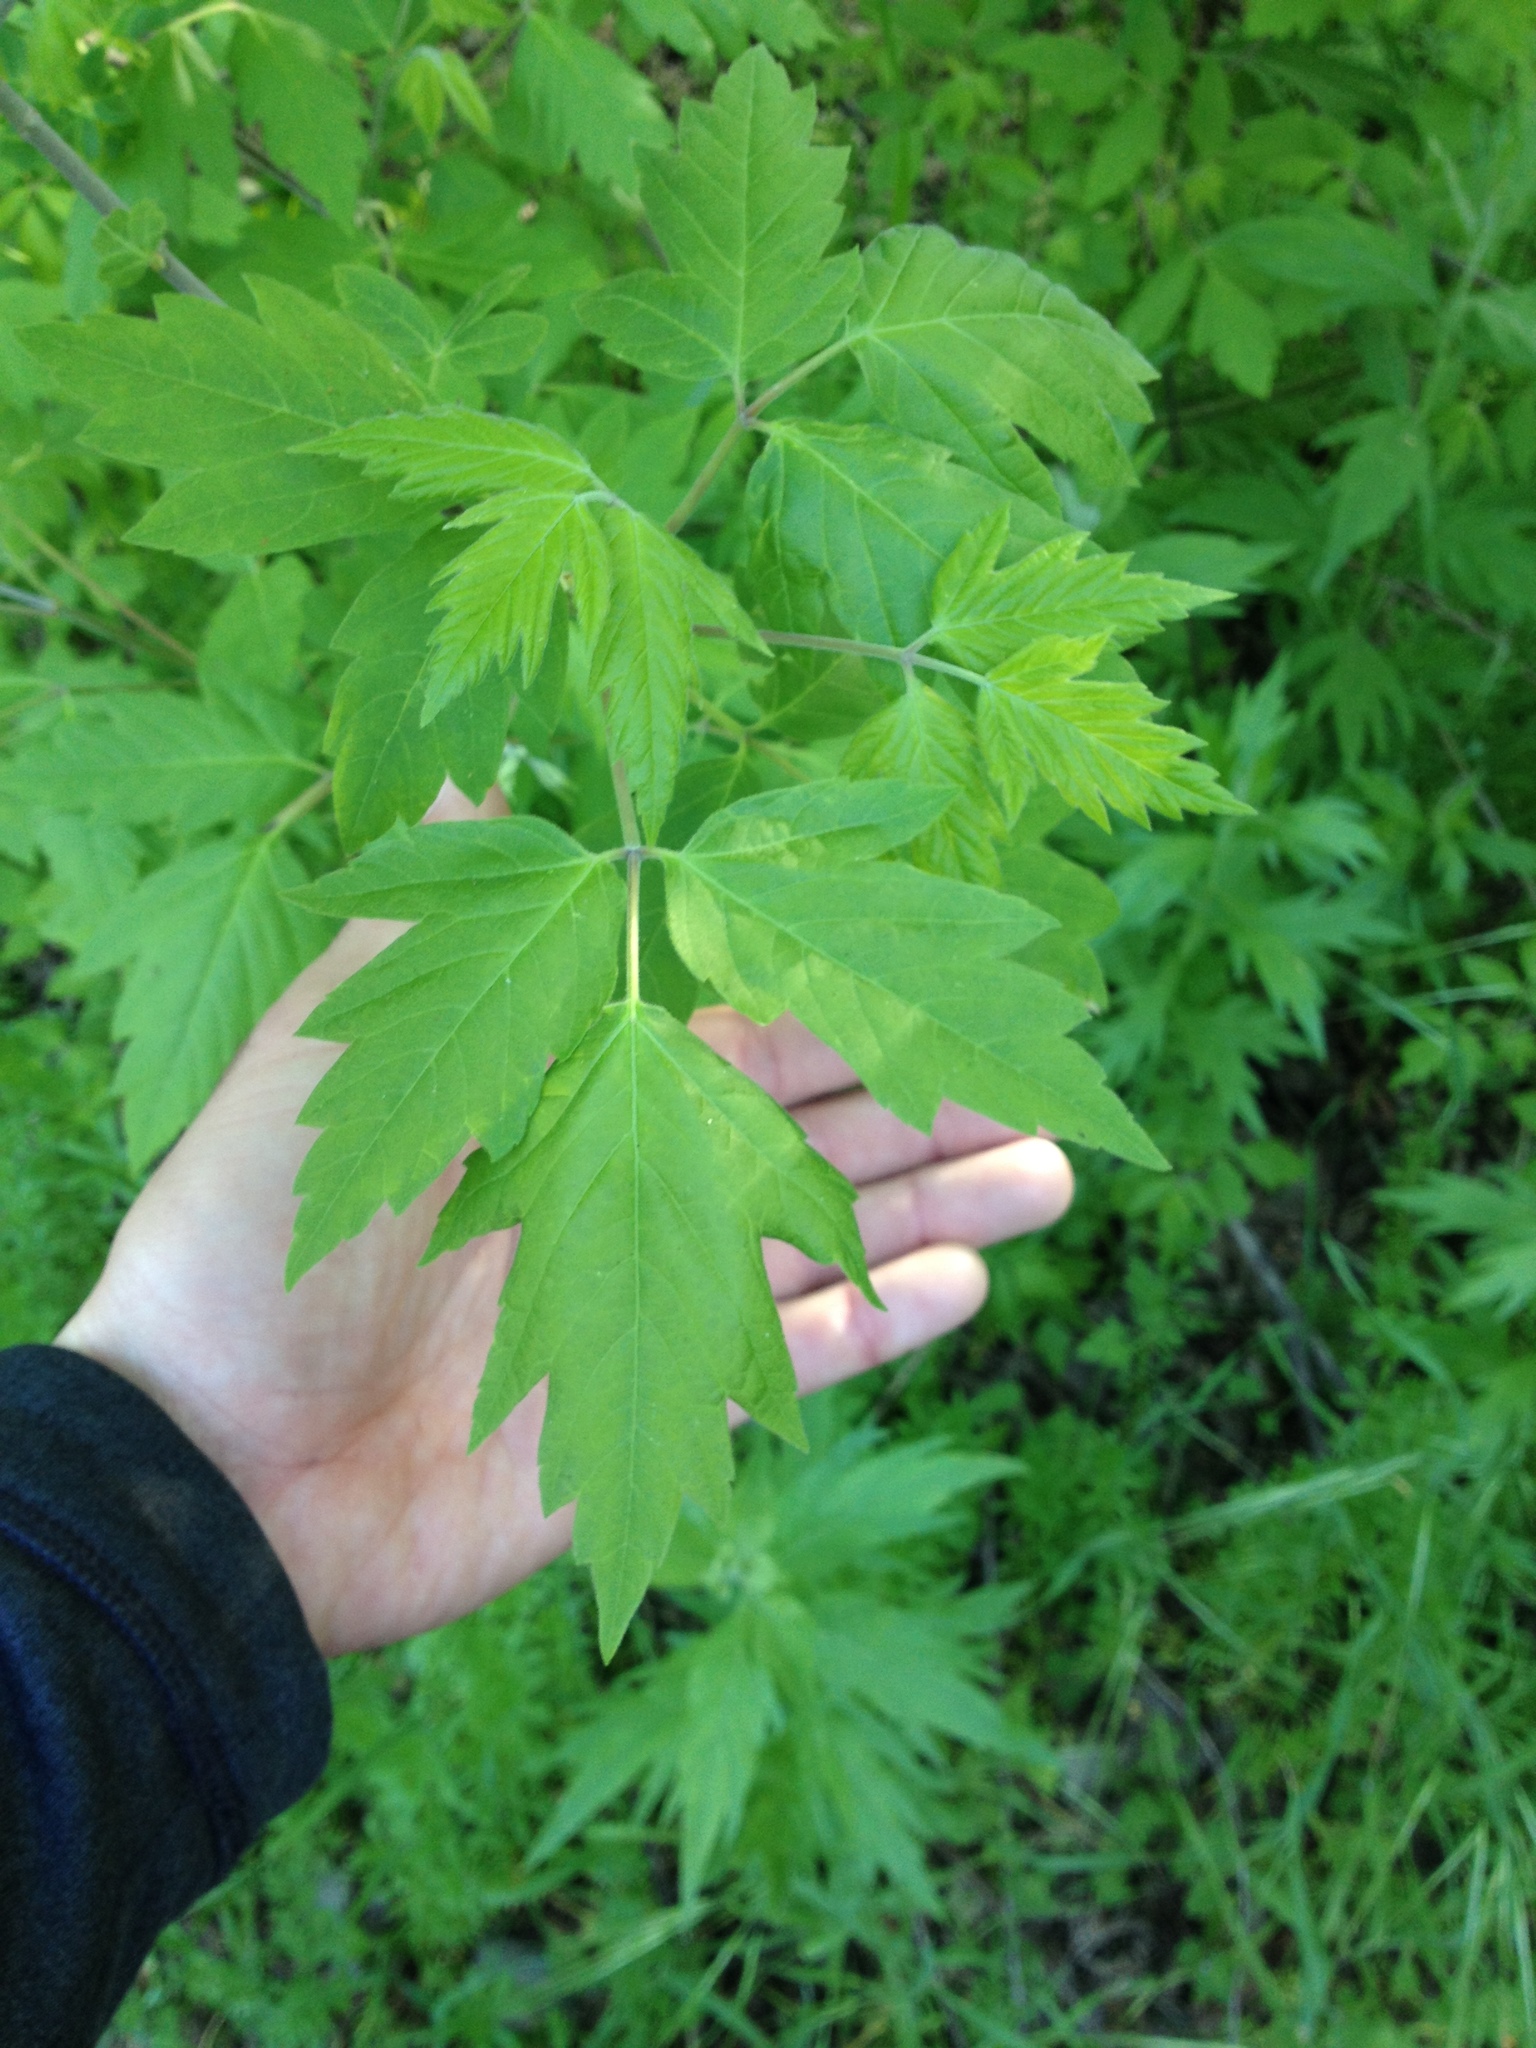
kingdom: Plantae
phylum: Tracheophyta
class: Magnoliopsida
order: Sapindales
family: Sapindaceae
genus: Acer
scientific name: Acer negundo
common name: Ashleaf maple
